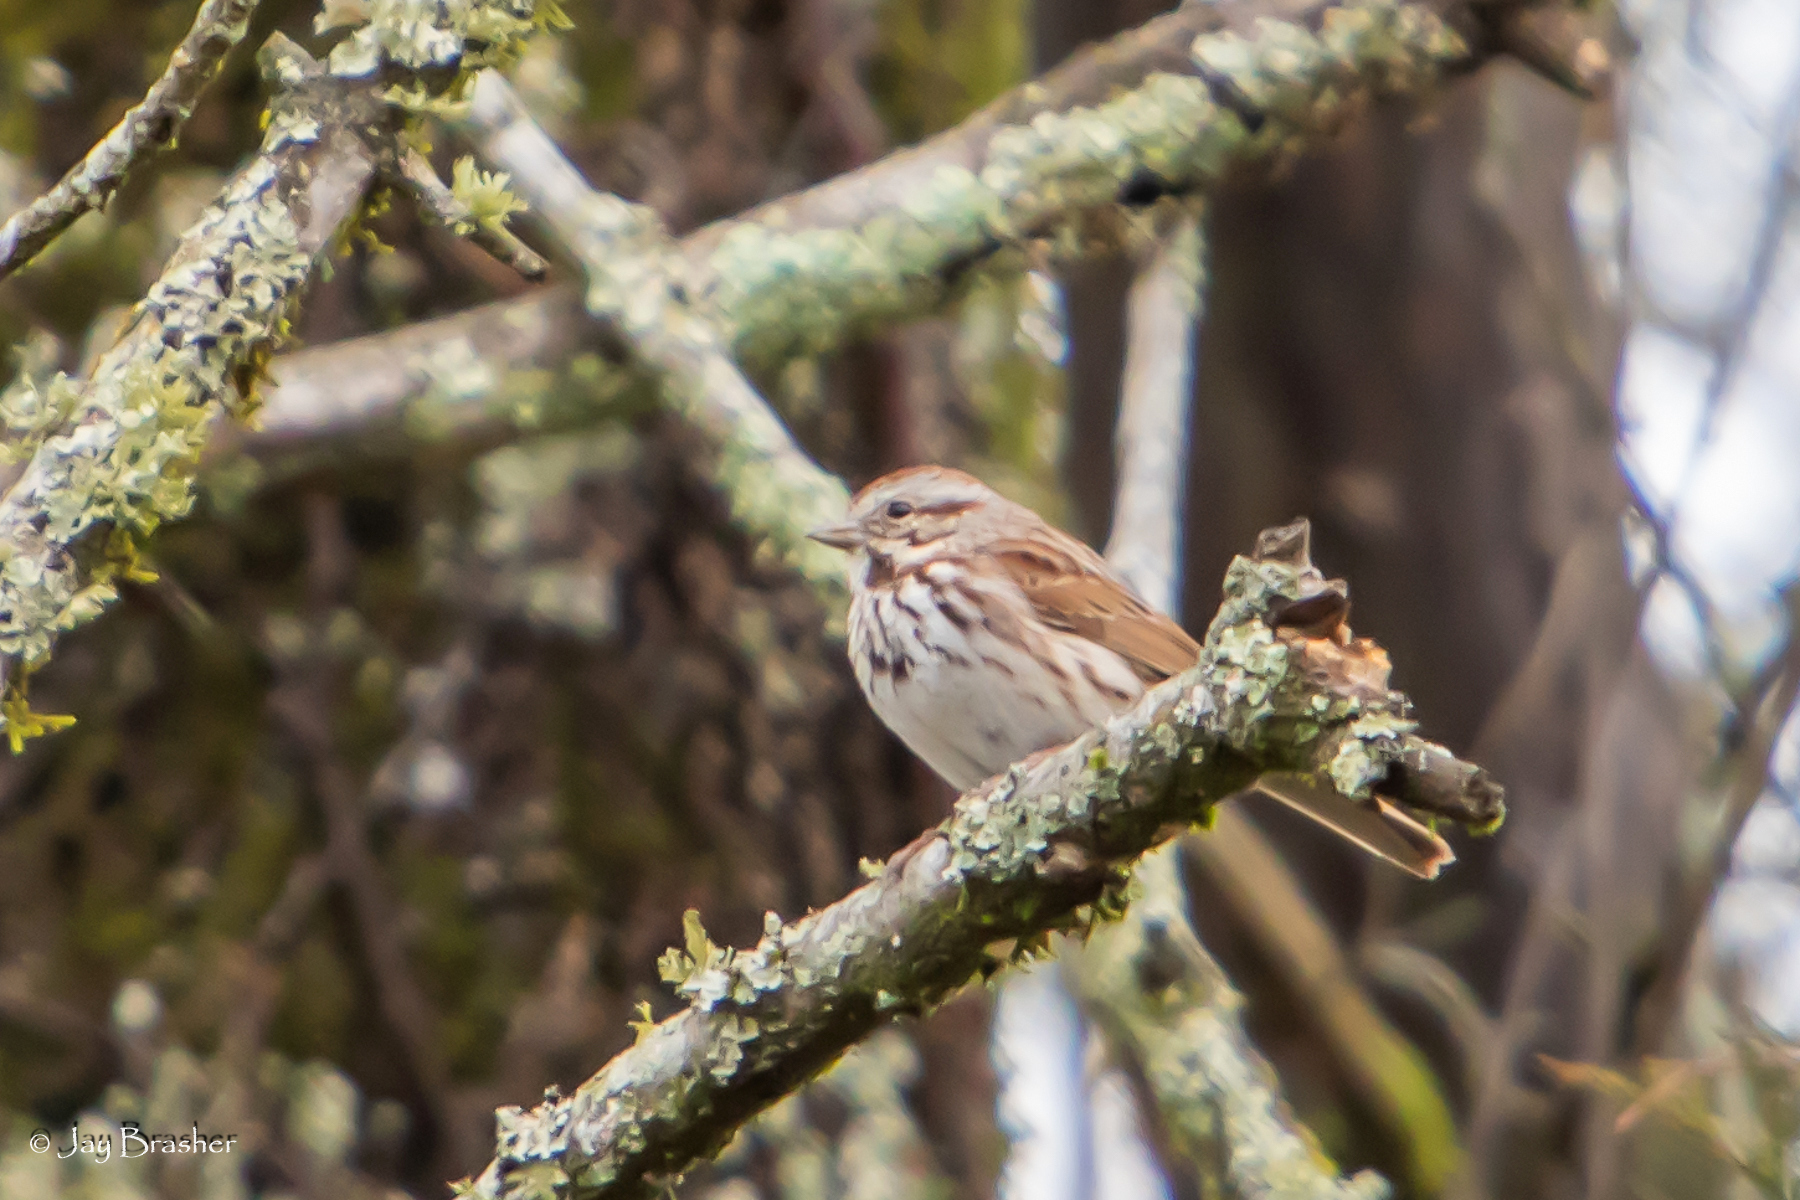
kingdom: Animalia
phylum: Chordata
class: Aves
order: Passeriformes
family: Passerellidae
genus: Melospiza
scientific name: Melospiza melodia
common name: Song sparrow
